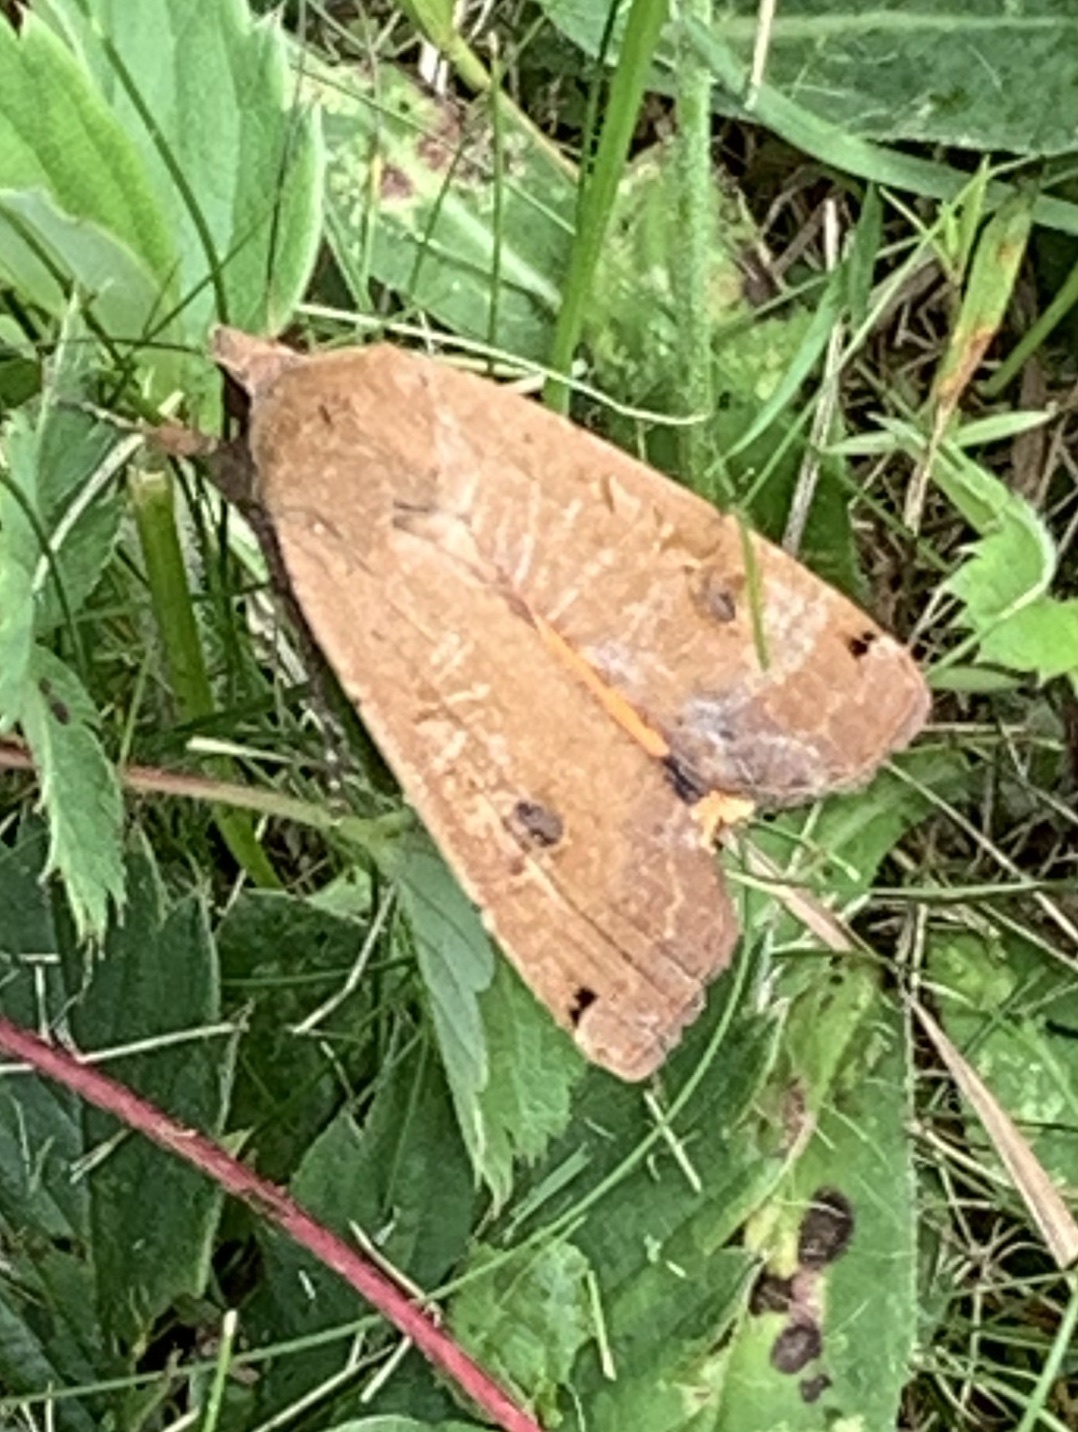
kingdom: Animalia
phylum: Arthropoda
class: Insecta
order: Lepidoptera
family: Noctuidae
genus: Noctua
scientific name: Noctua pronuba
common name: Large yellow underwing
